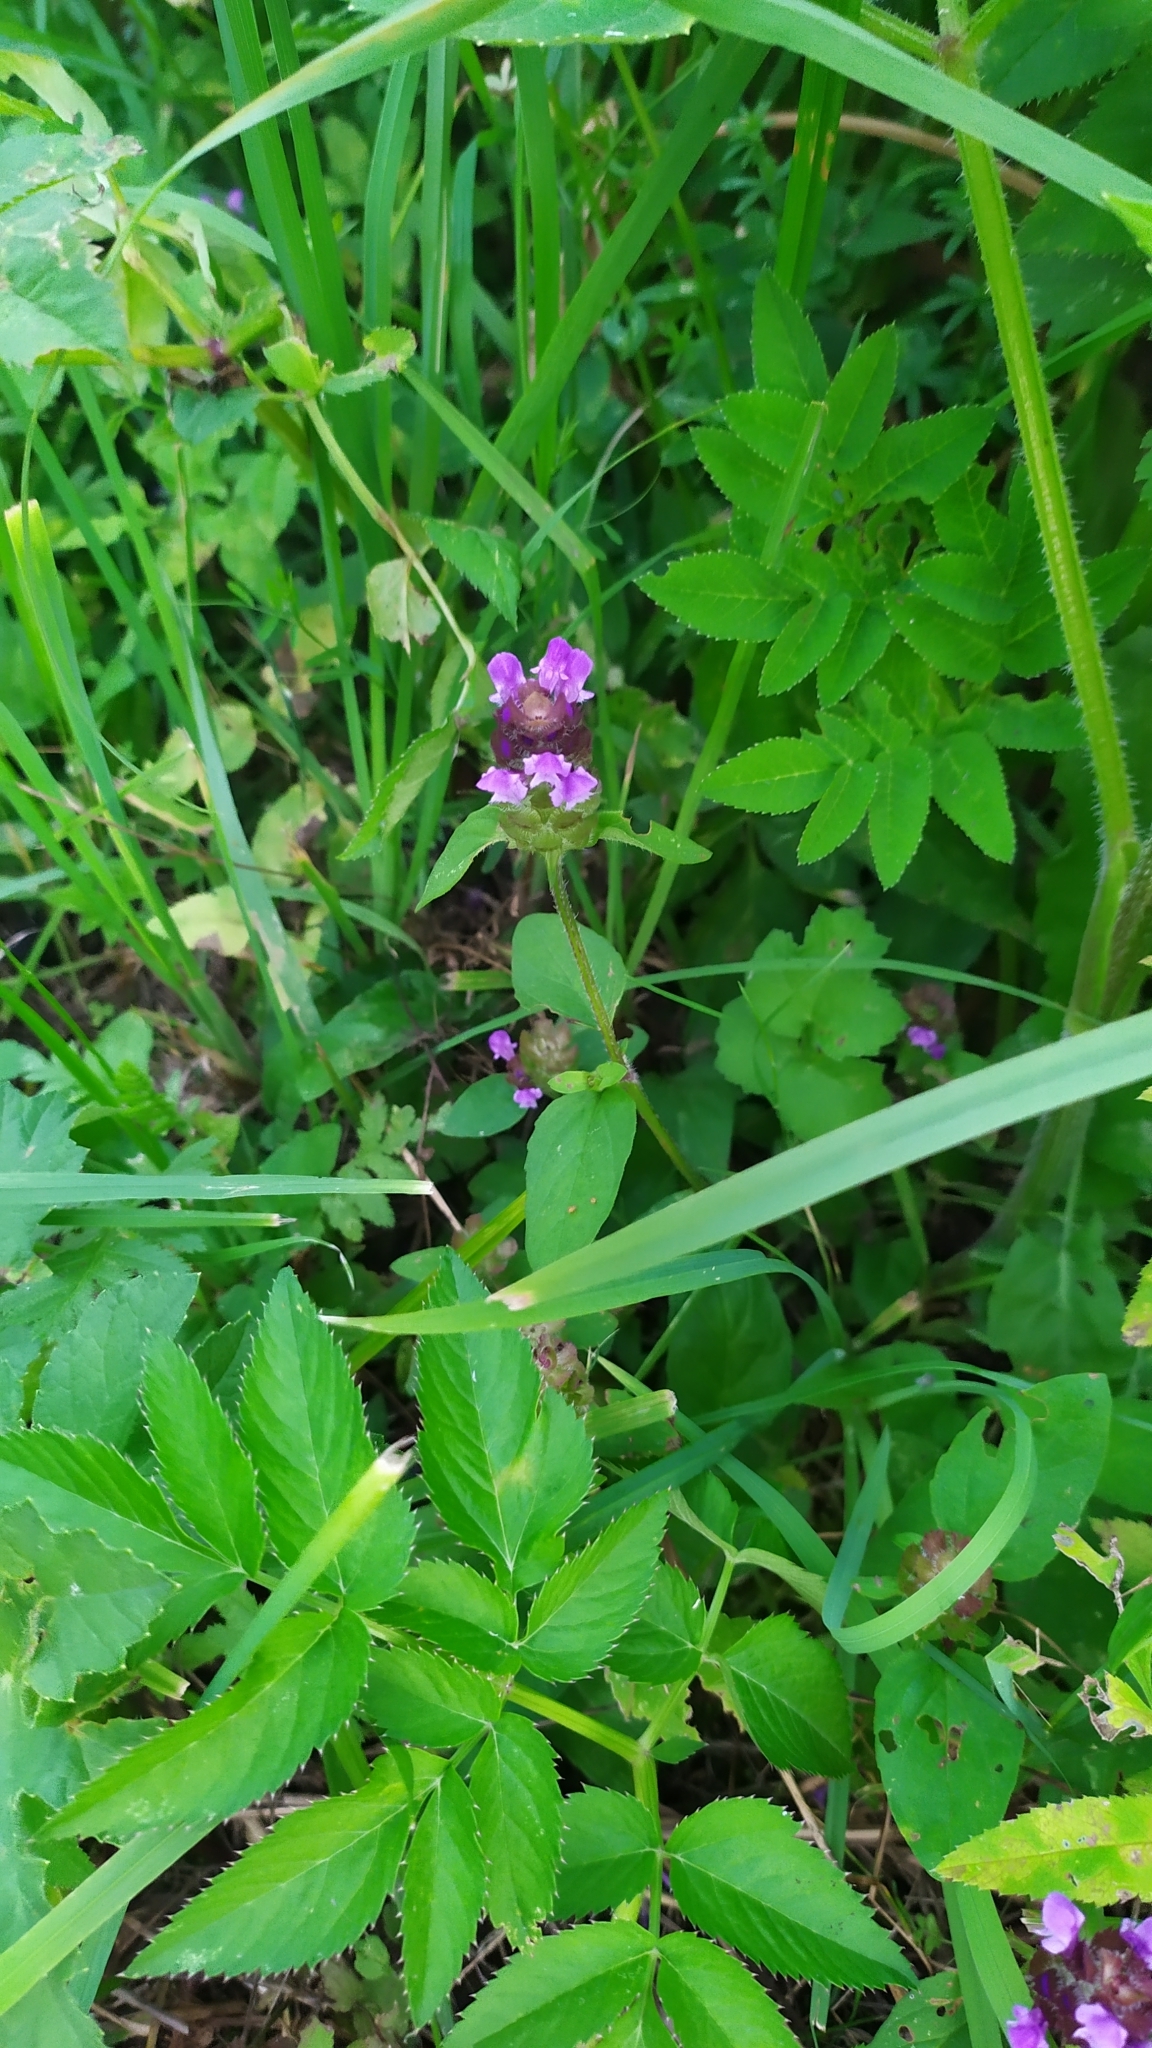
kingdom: Plantae
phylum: Tracheophyta
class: Magnoliopsida
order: Lamiales
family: Lamiaceae
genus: Prunella
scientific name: Prunella vulgaris
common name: Heal-all
